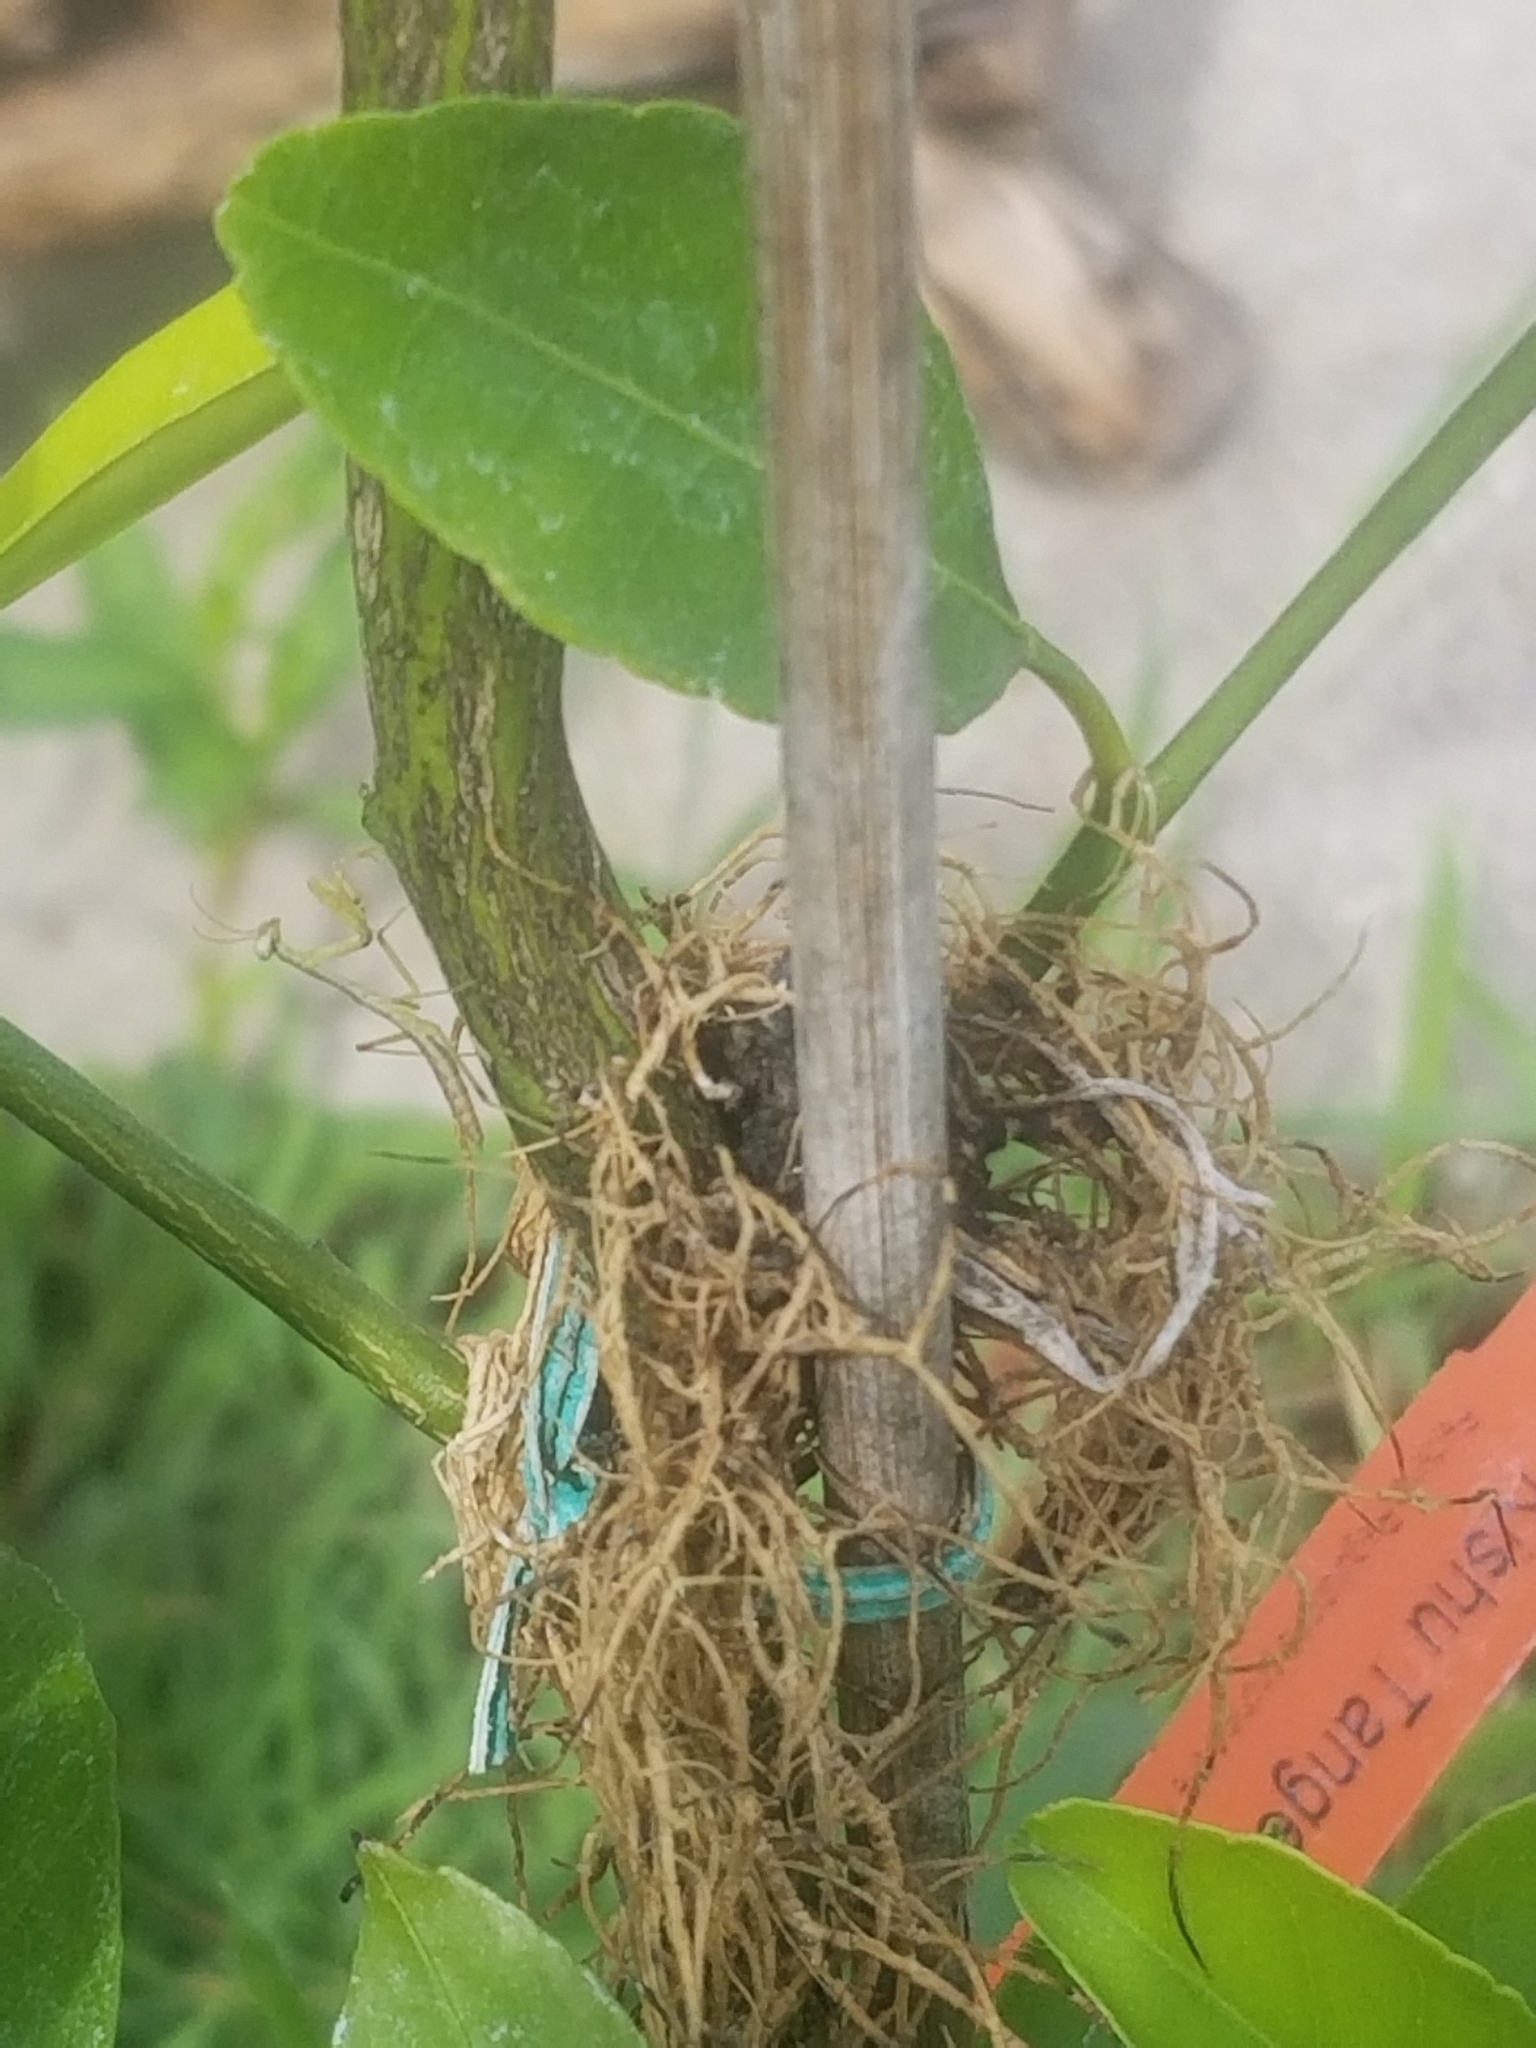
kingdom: Animalia
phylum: Arthropoda
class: Insecta
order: Mantodea
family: Mantidae
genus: Stagmomantis
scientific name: Stagmomantis carolina
